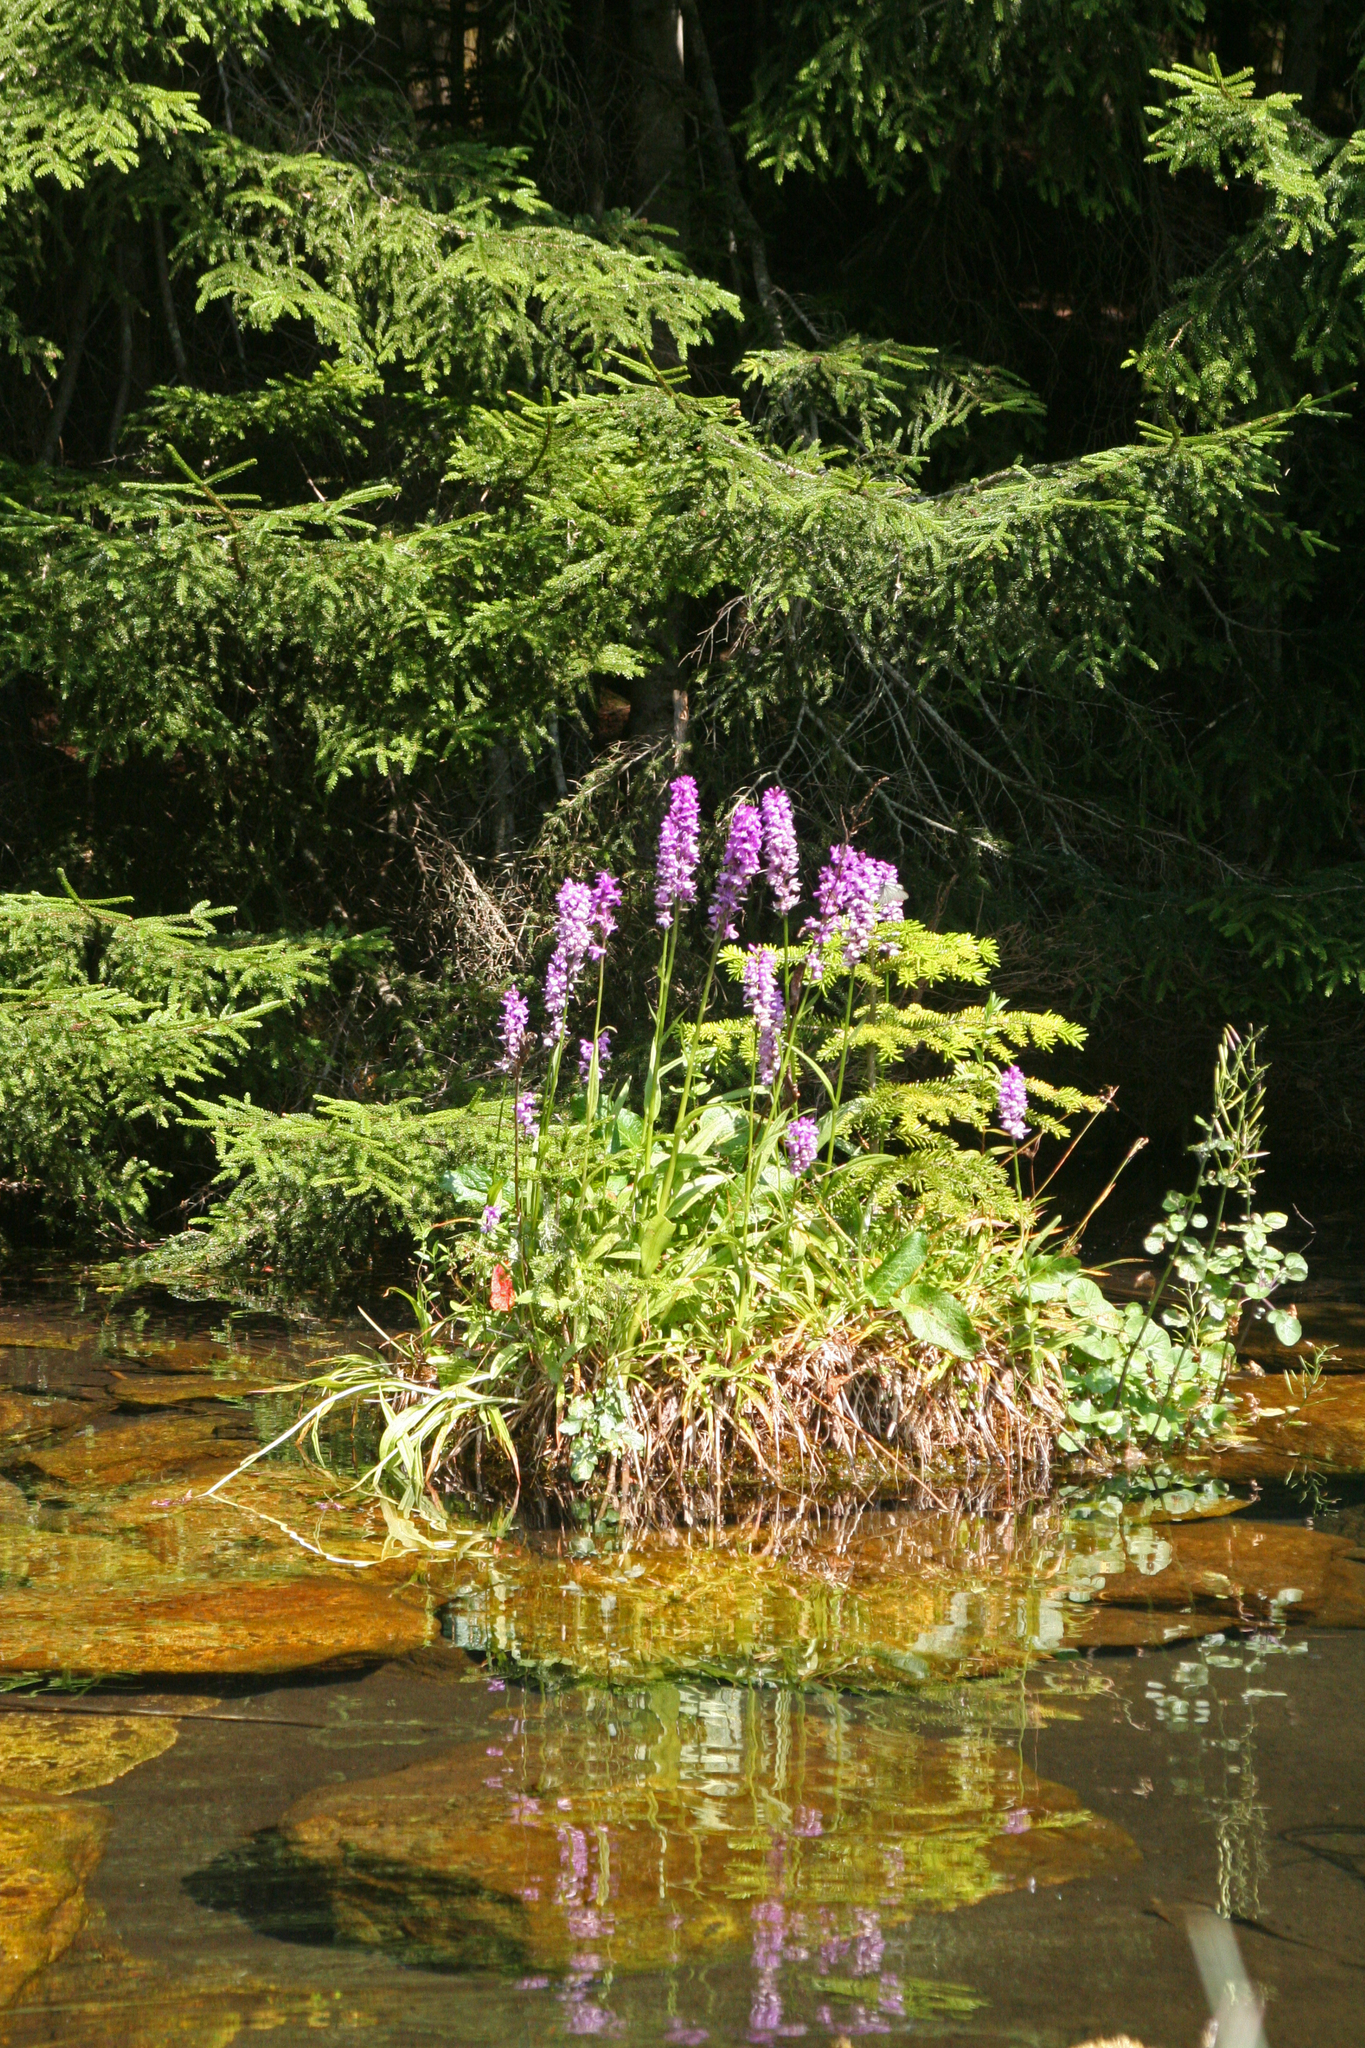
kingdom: Plantae
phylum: Tracheophyta
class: Liliopsida
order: Asparagales
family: Orchidaceae
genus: Dactylorhiza
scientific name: Dactylorhiza euxina
